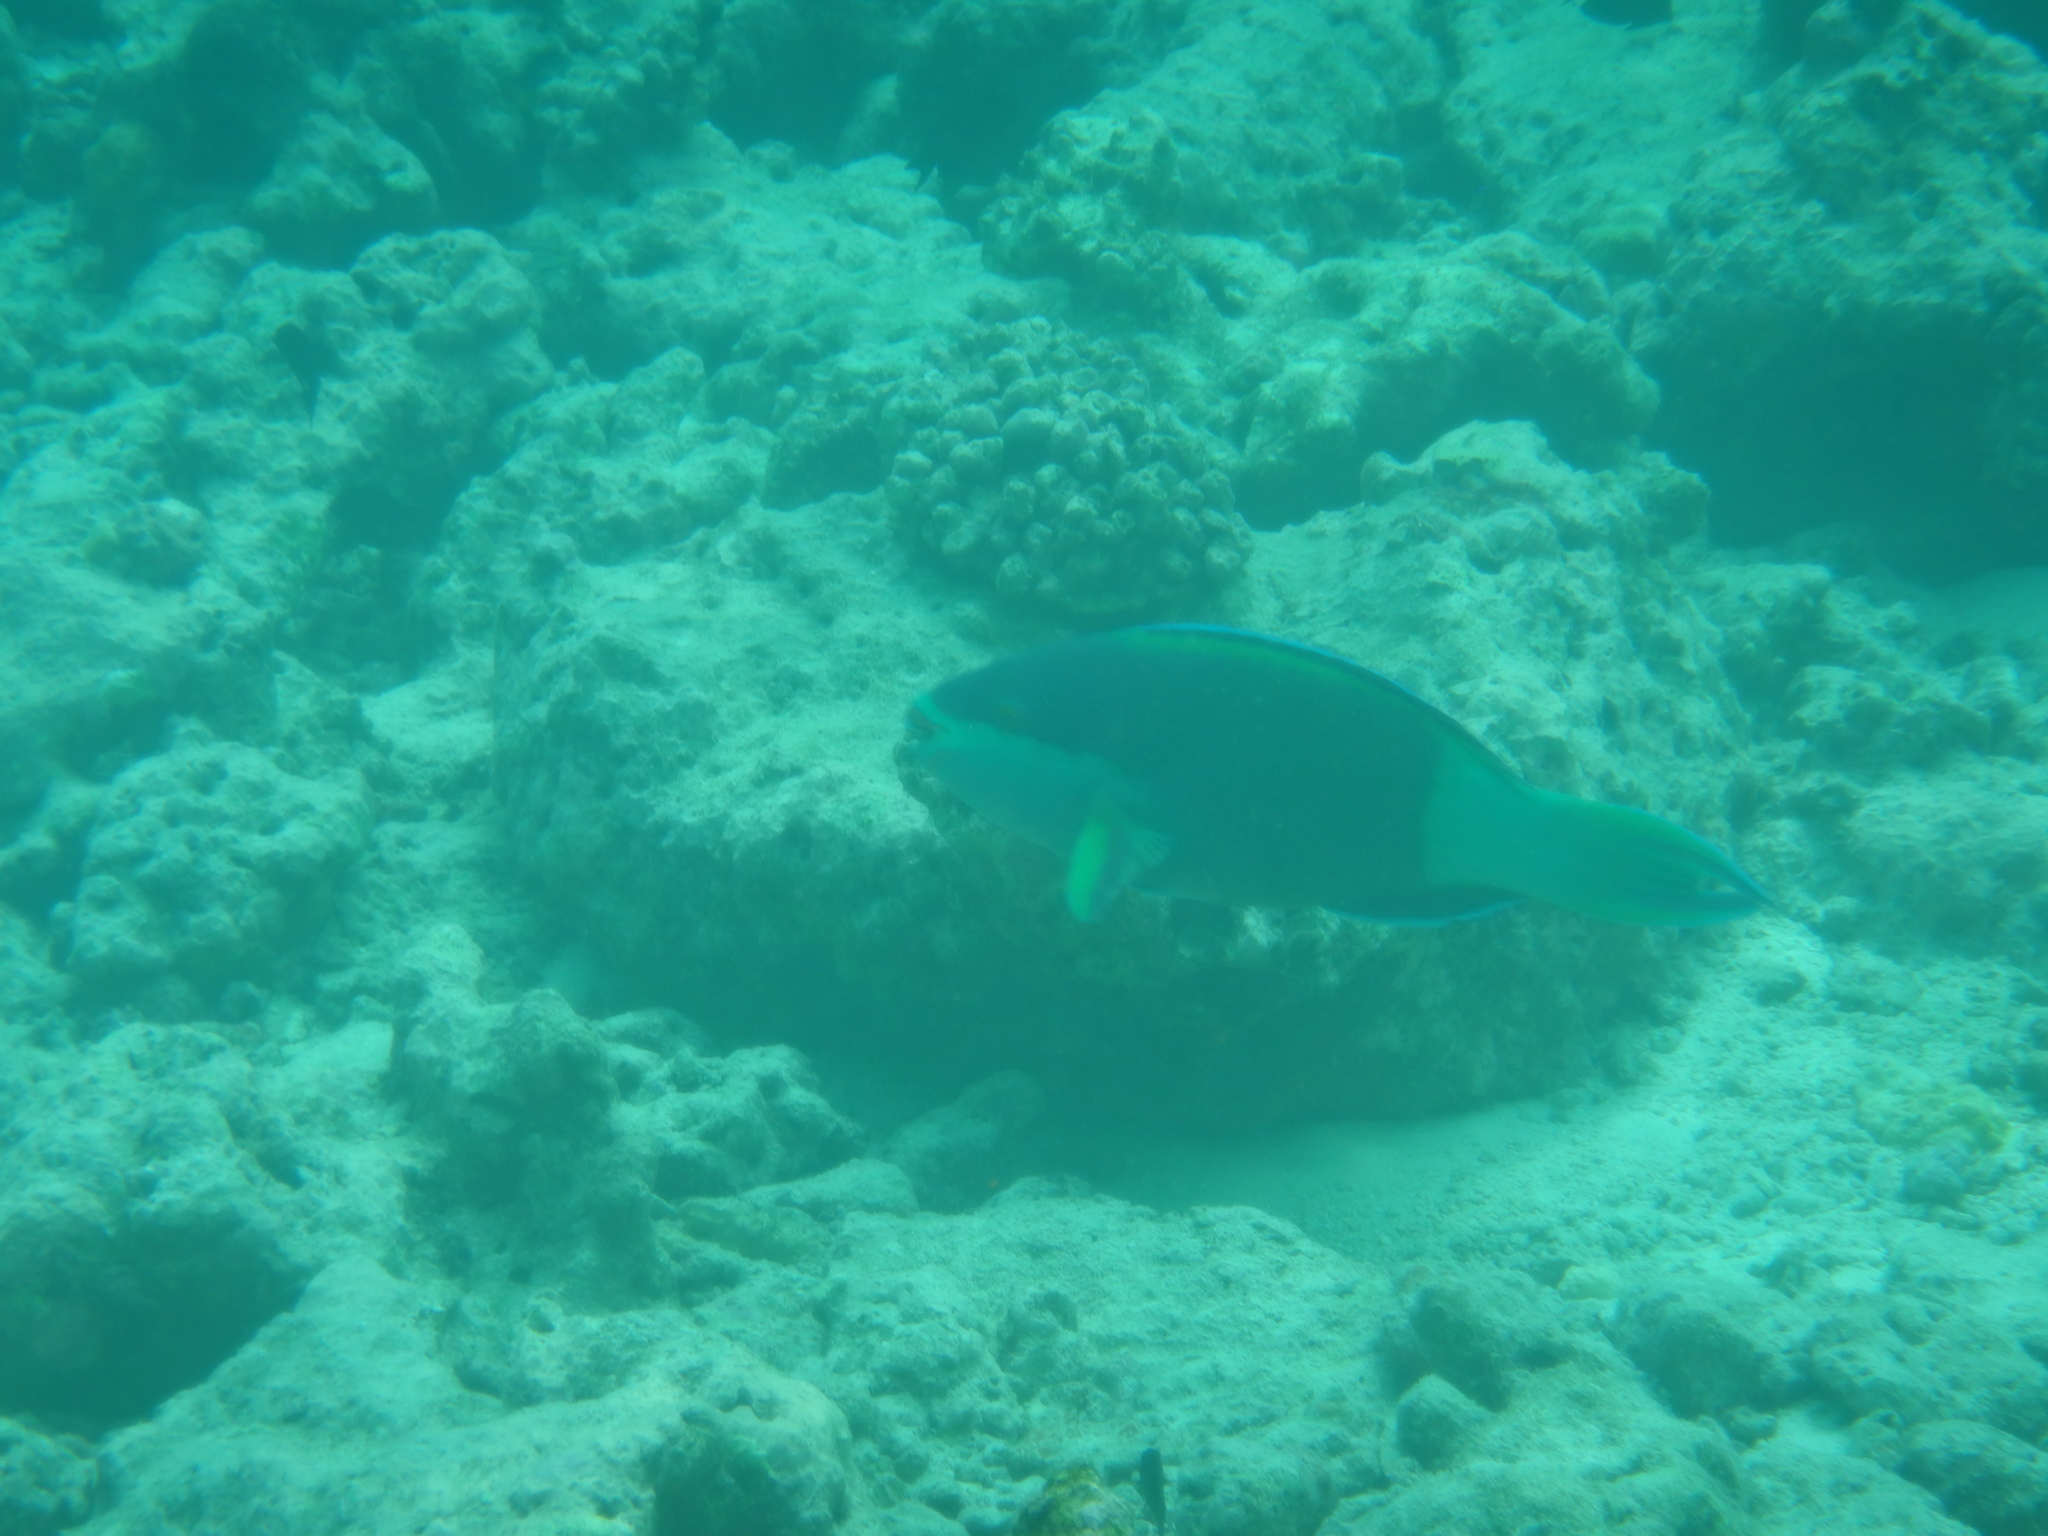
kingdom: Animalia
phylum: Chordata
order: Perciformes
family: Scaridae
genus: Scarus
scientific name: Scarus frenatus
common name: Bridled parrotfish
